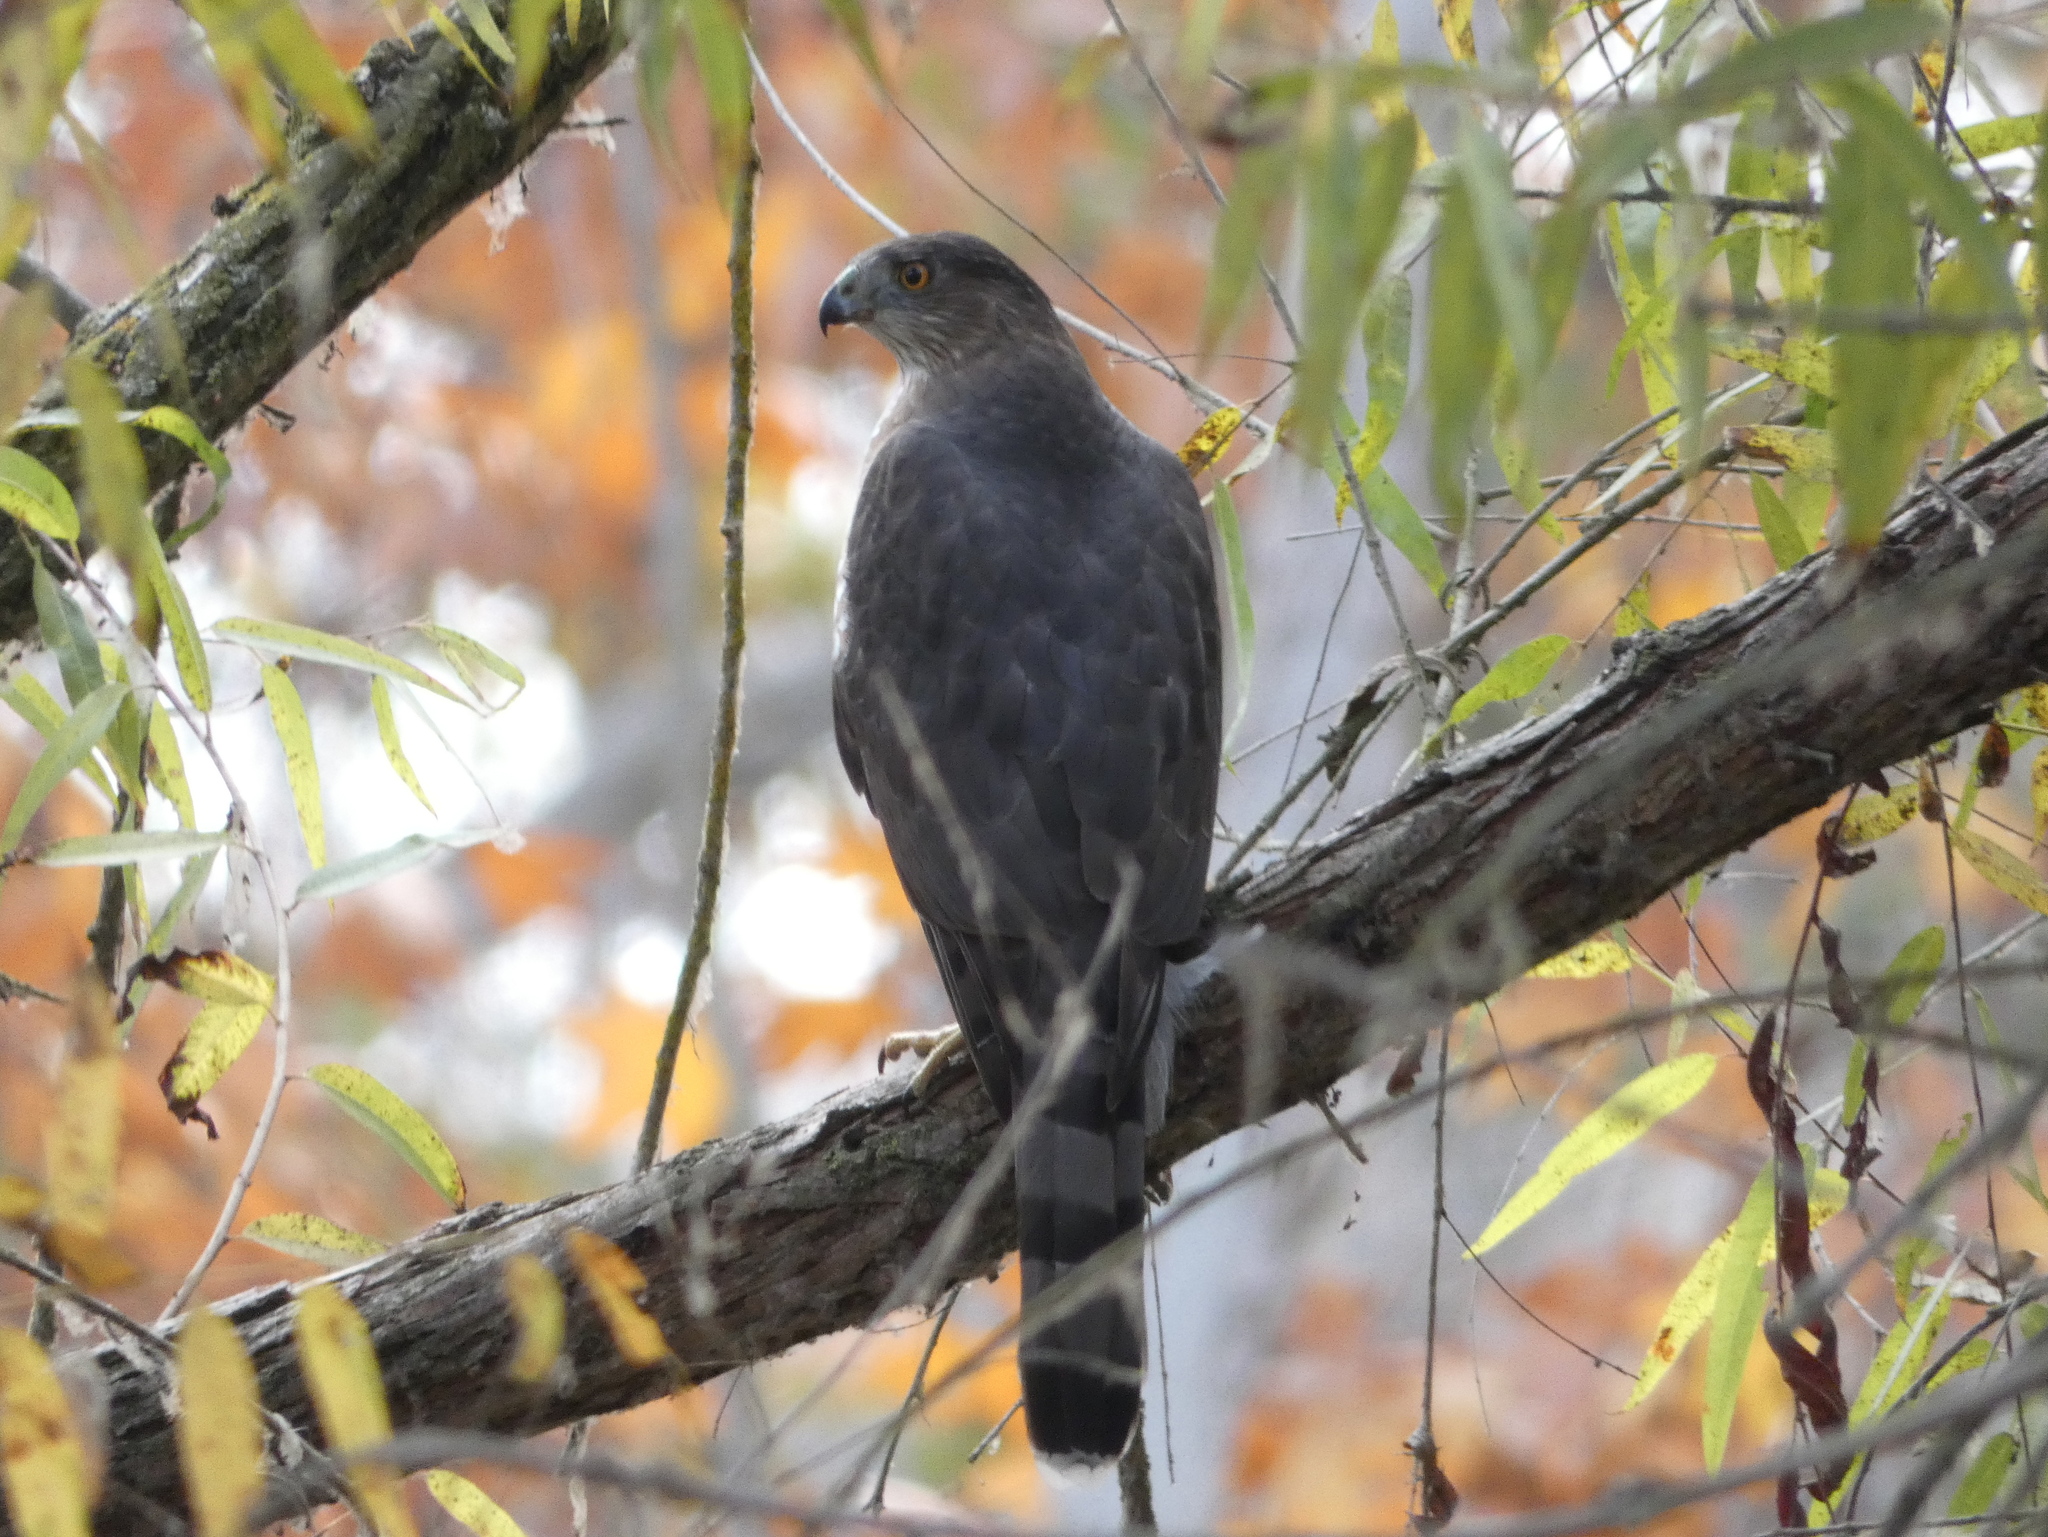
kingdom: Animalia
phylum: Chordata
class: Aves
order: Accipitriformes
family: Accipitridae
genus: Accipiter
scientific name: Accipiter cooperii
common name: Cooper's hawk
